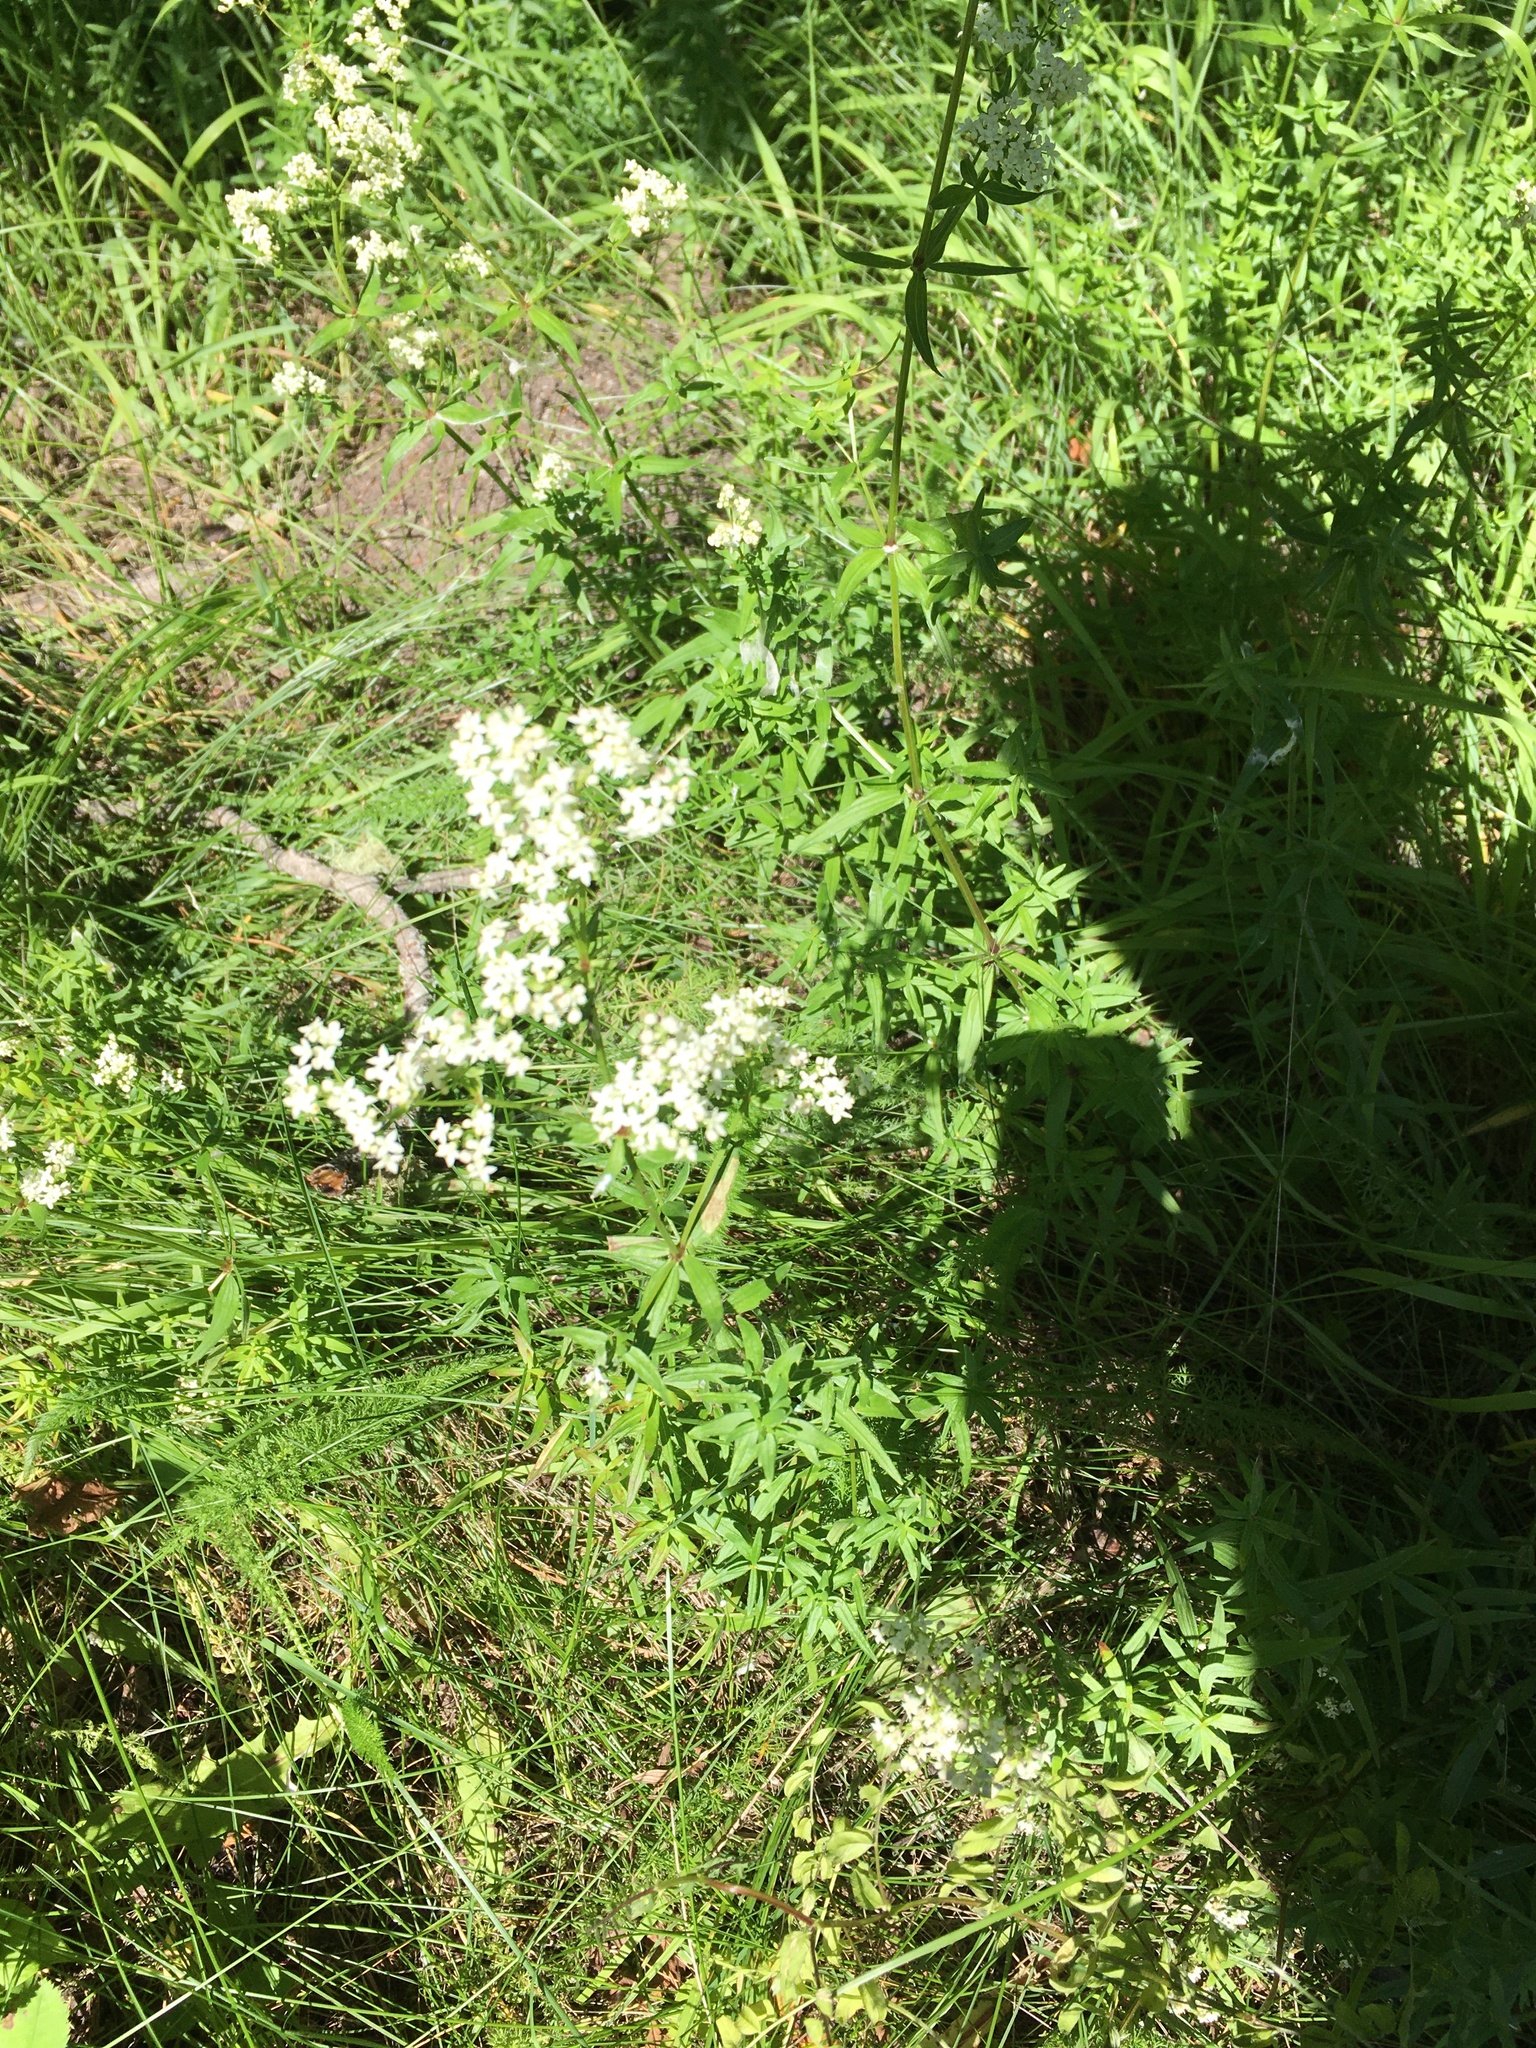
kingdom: Plantae
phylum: Tracheophyta
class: Magnoliopsida
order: Fabales
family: Fabaceae
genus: Melilotus
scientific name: Melilotus albus
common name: White melilot
